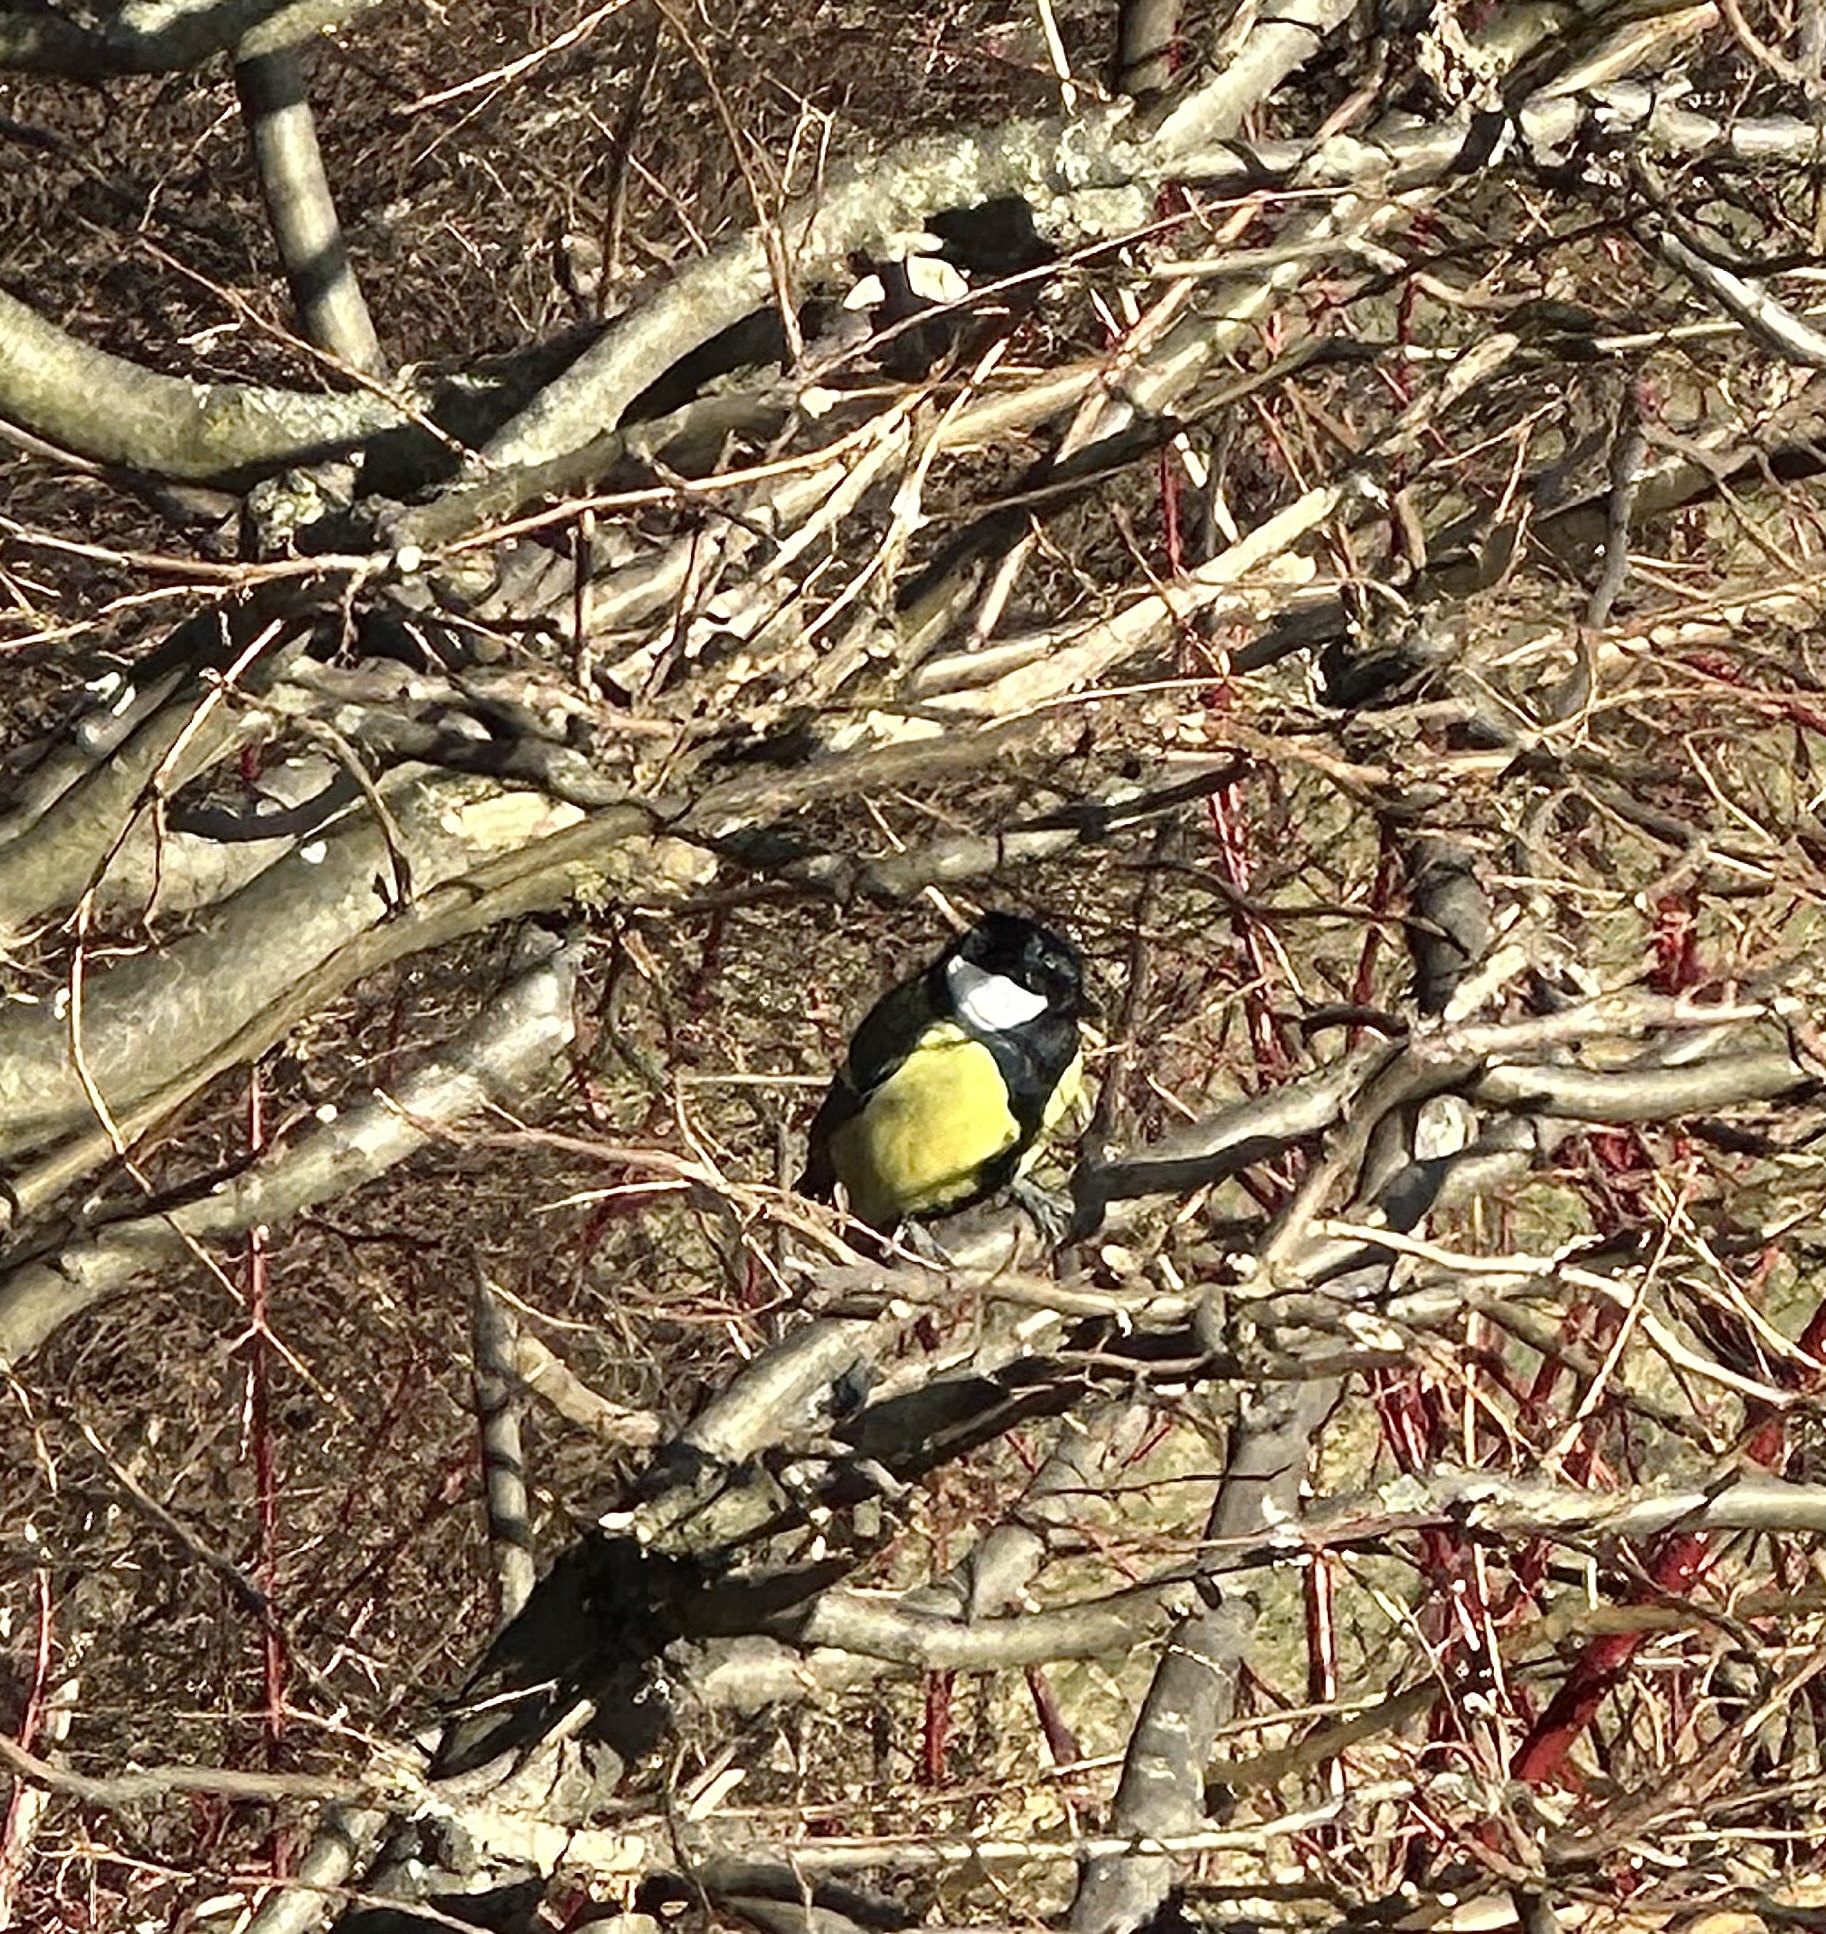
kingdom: Animalia
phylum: Chordata
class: Aves
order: Passeriformes
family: Paridae
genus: Parus
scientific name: Parus major
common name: Great tit
